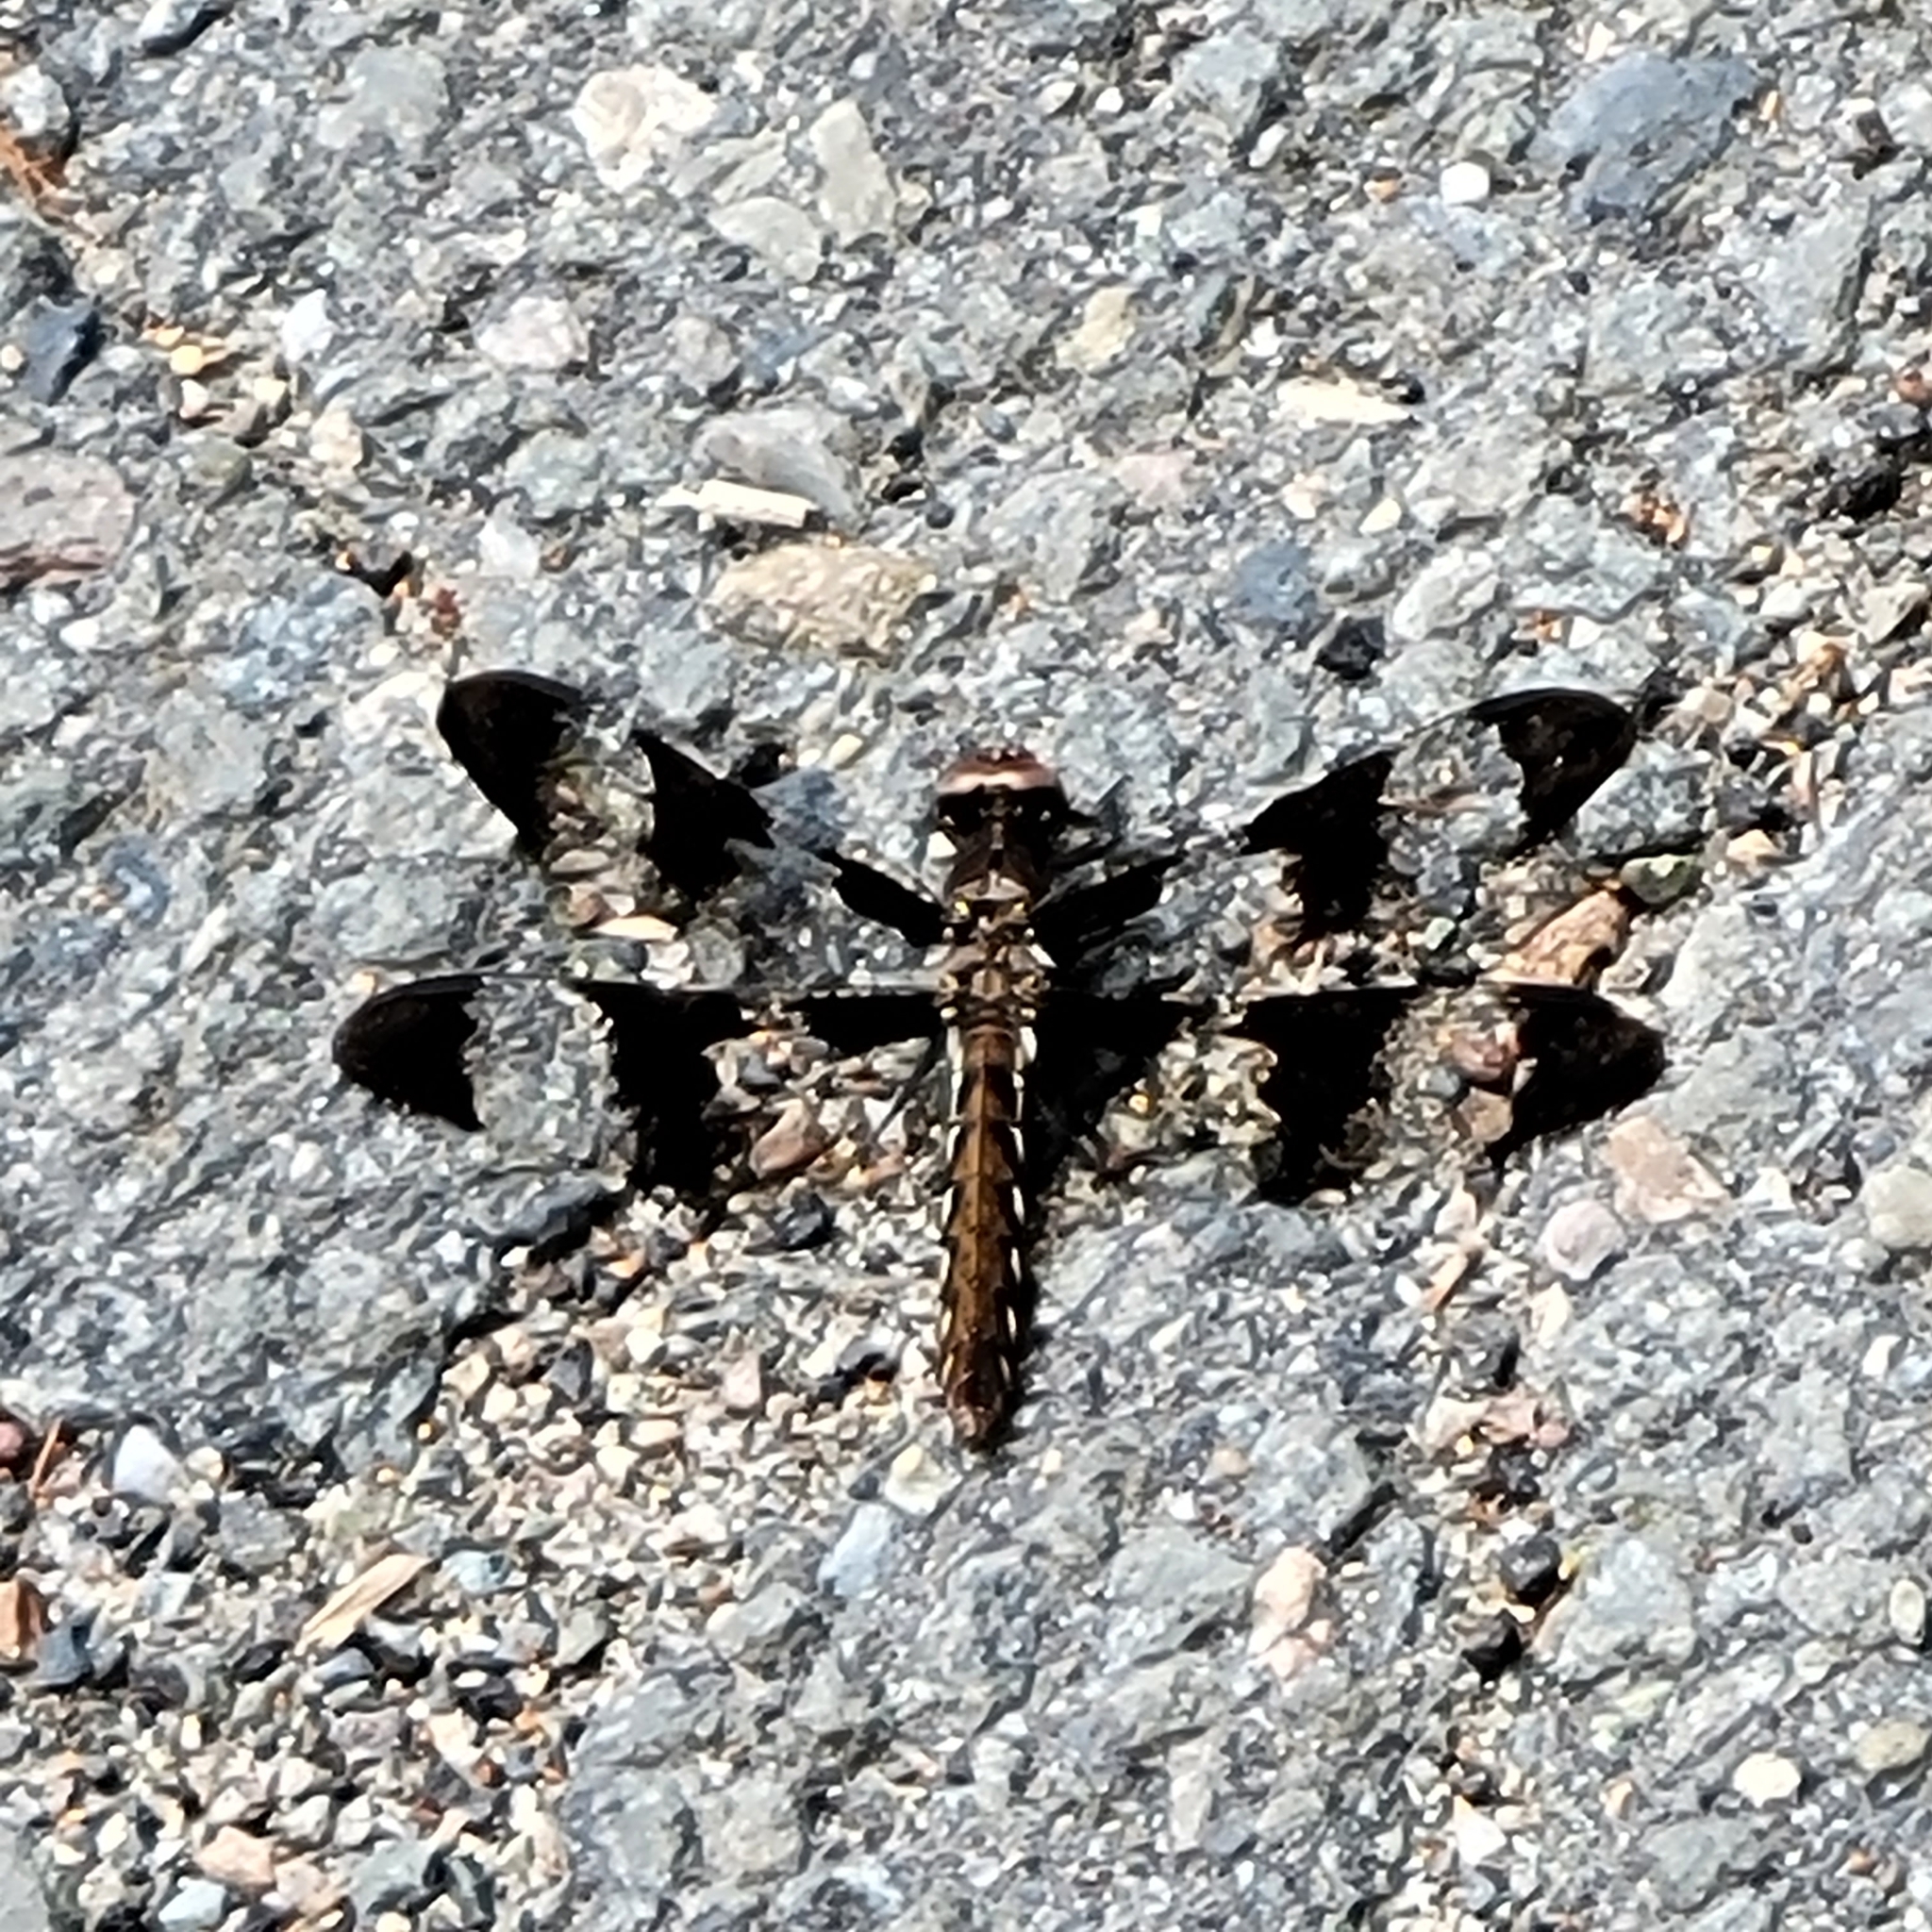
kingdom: Animalia
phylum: Arthropoda
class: Insecta
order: Odonata
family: Libellulidae
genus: Plathemis
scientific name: Plathemis lydia
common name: Common whitetail
